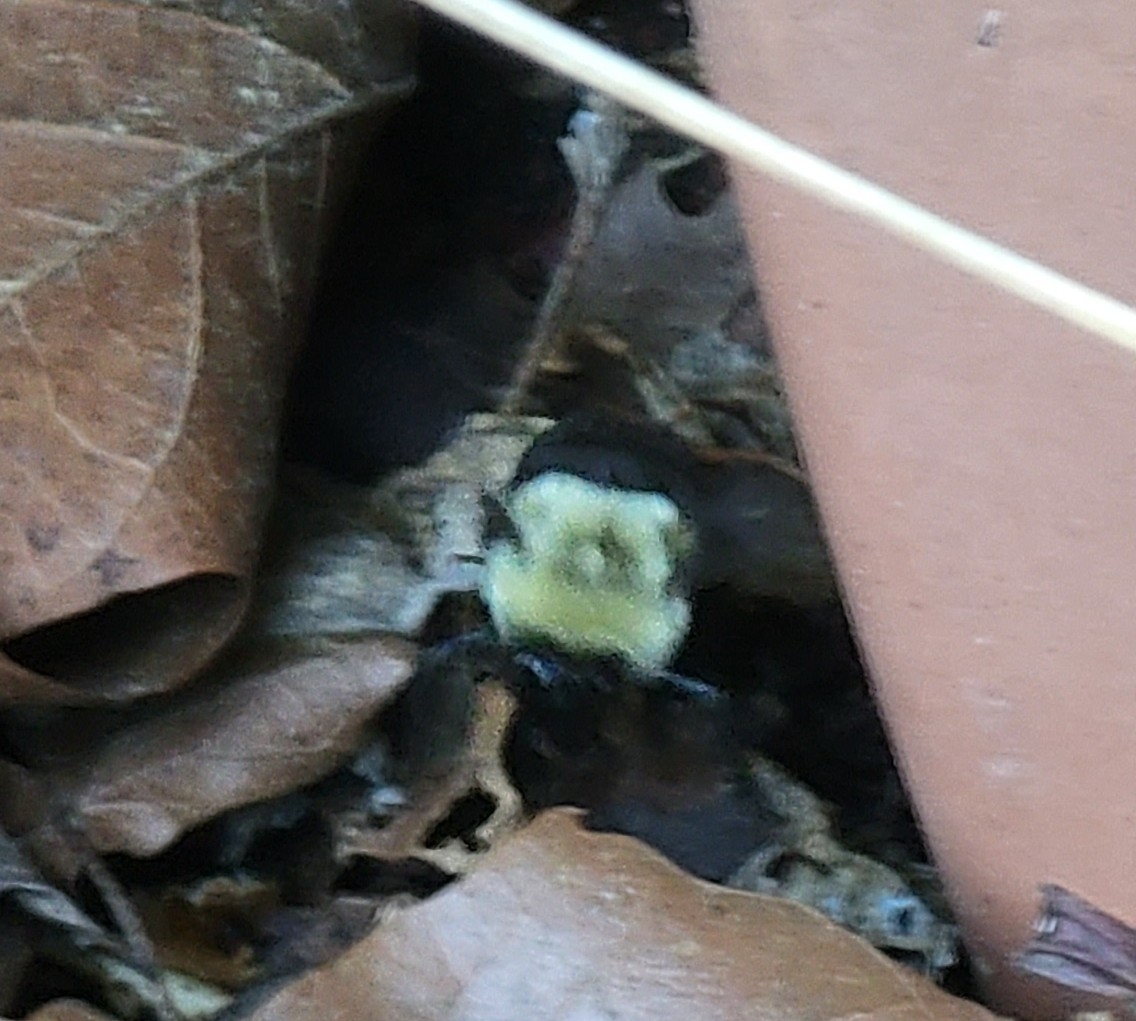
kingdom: Animalia
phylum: Arthropoda
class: Insecta
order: Hymenoptera
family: Apidae
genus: Bombus
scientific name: Bombus impatiens
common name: Common eastern bumble bee
